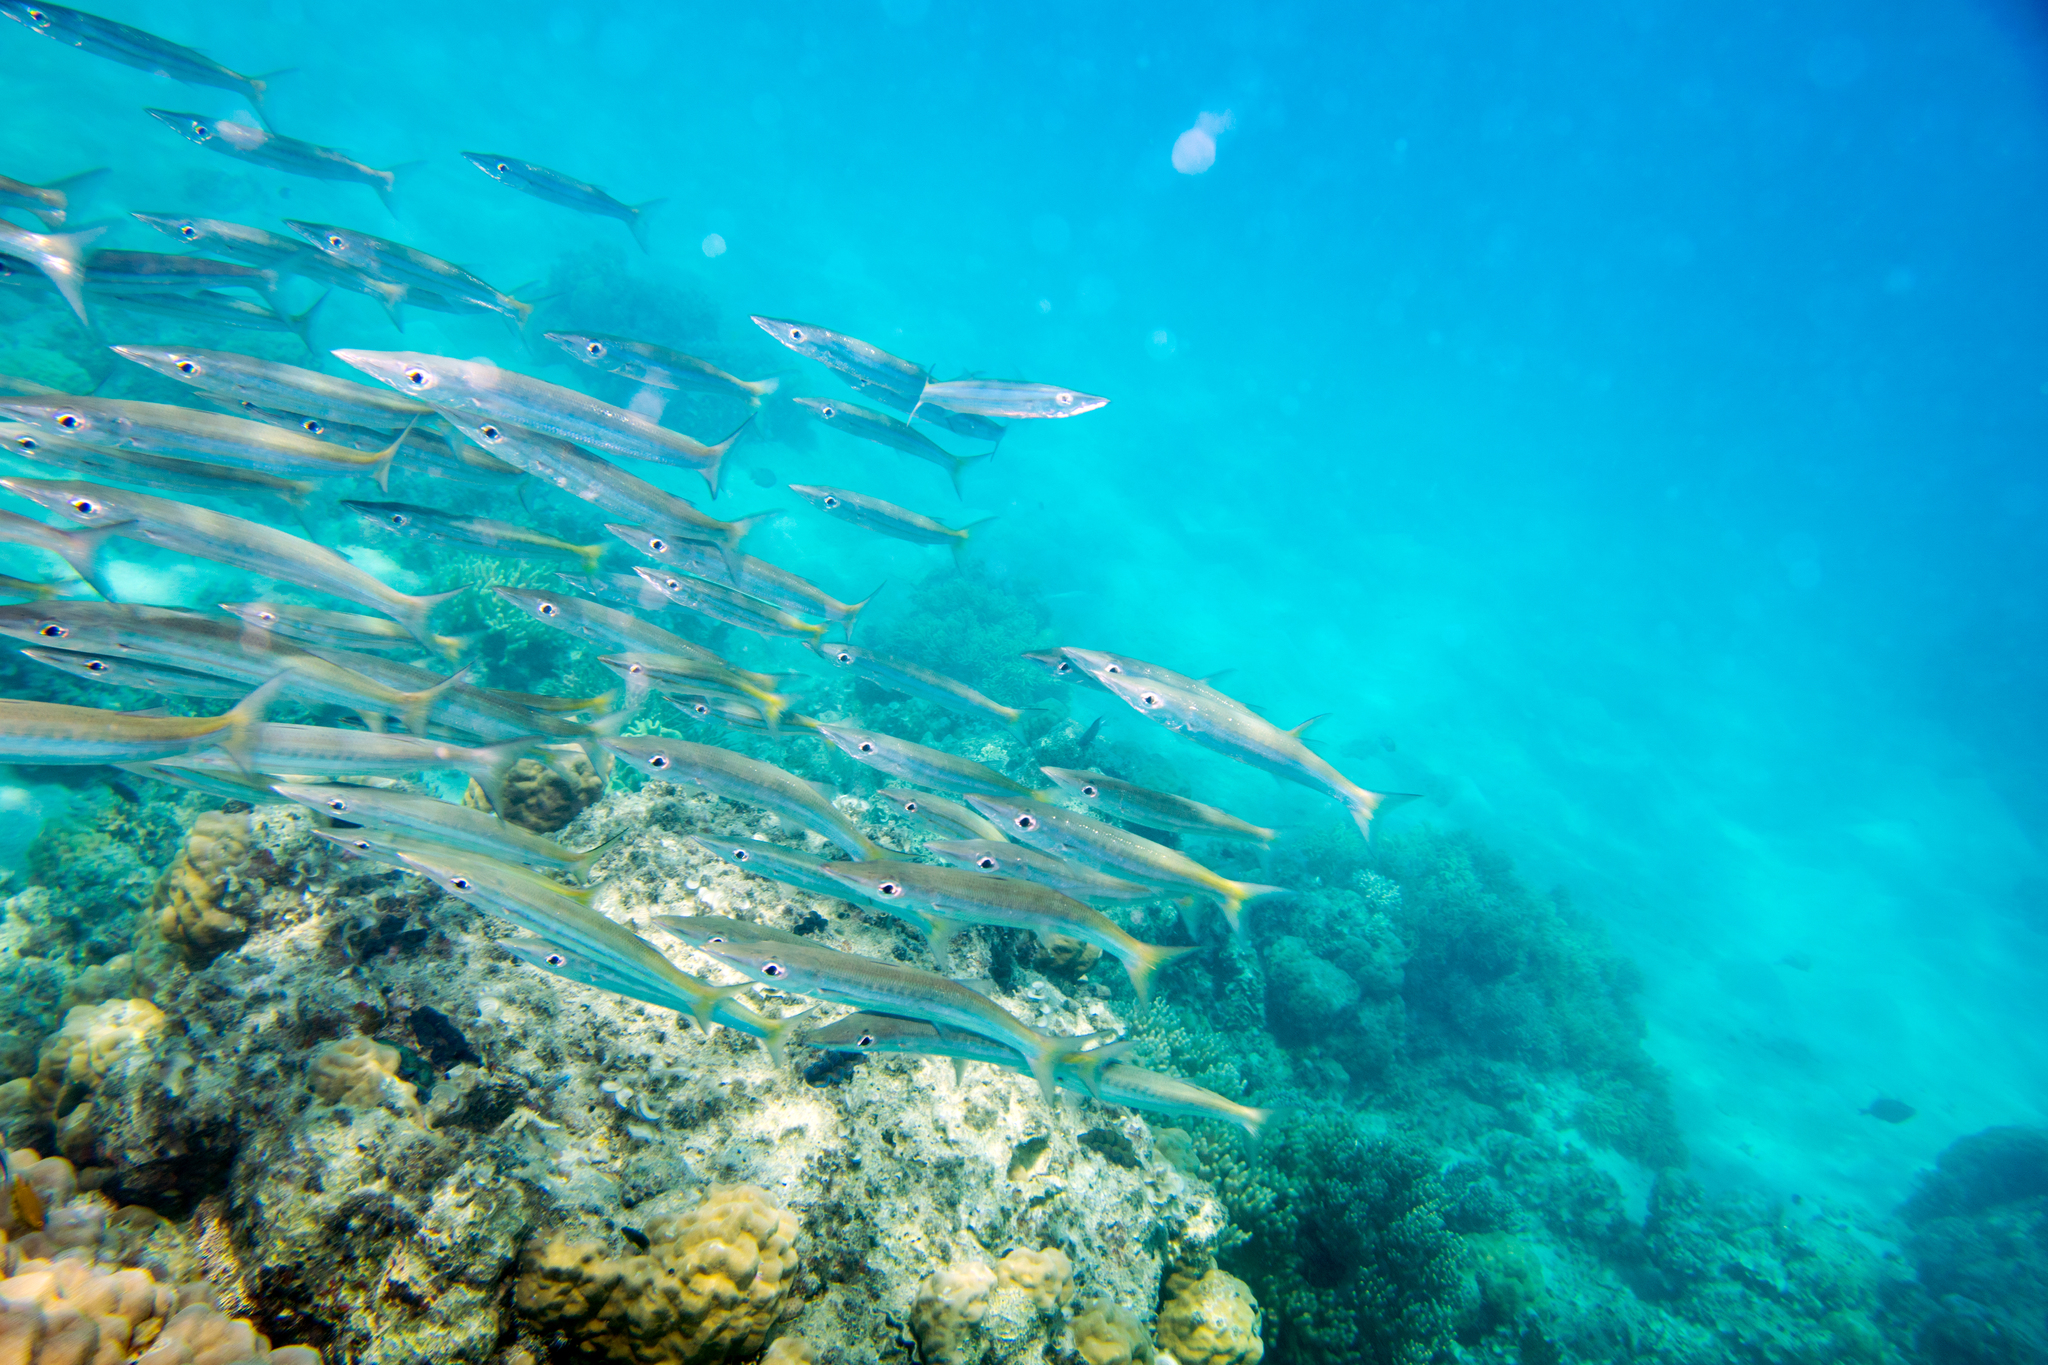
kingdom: Animalia
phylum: Chordata
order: Perciformes
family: Sphyraenidae
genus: Sphyraena
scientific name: Sphyraena obtusata
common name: Obtuse barracuda
